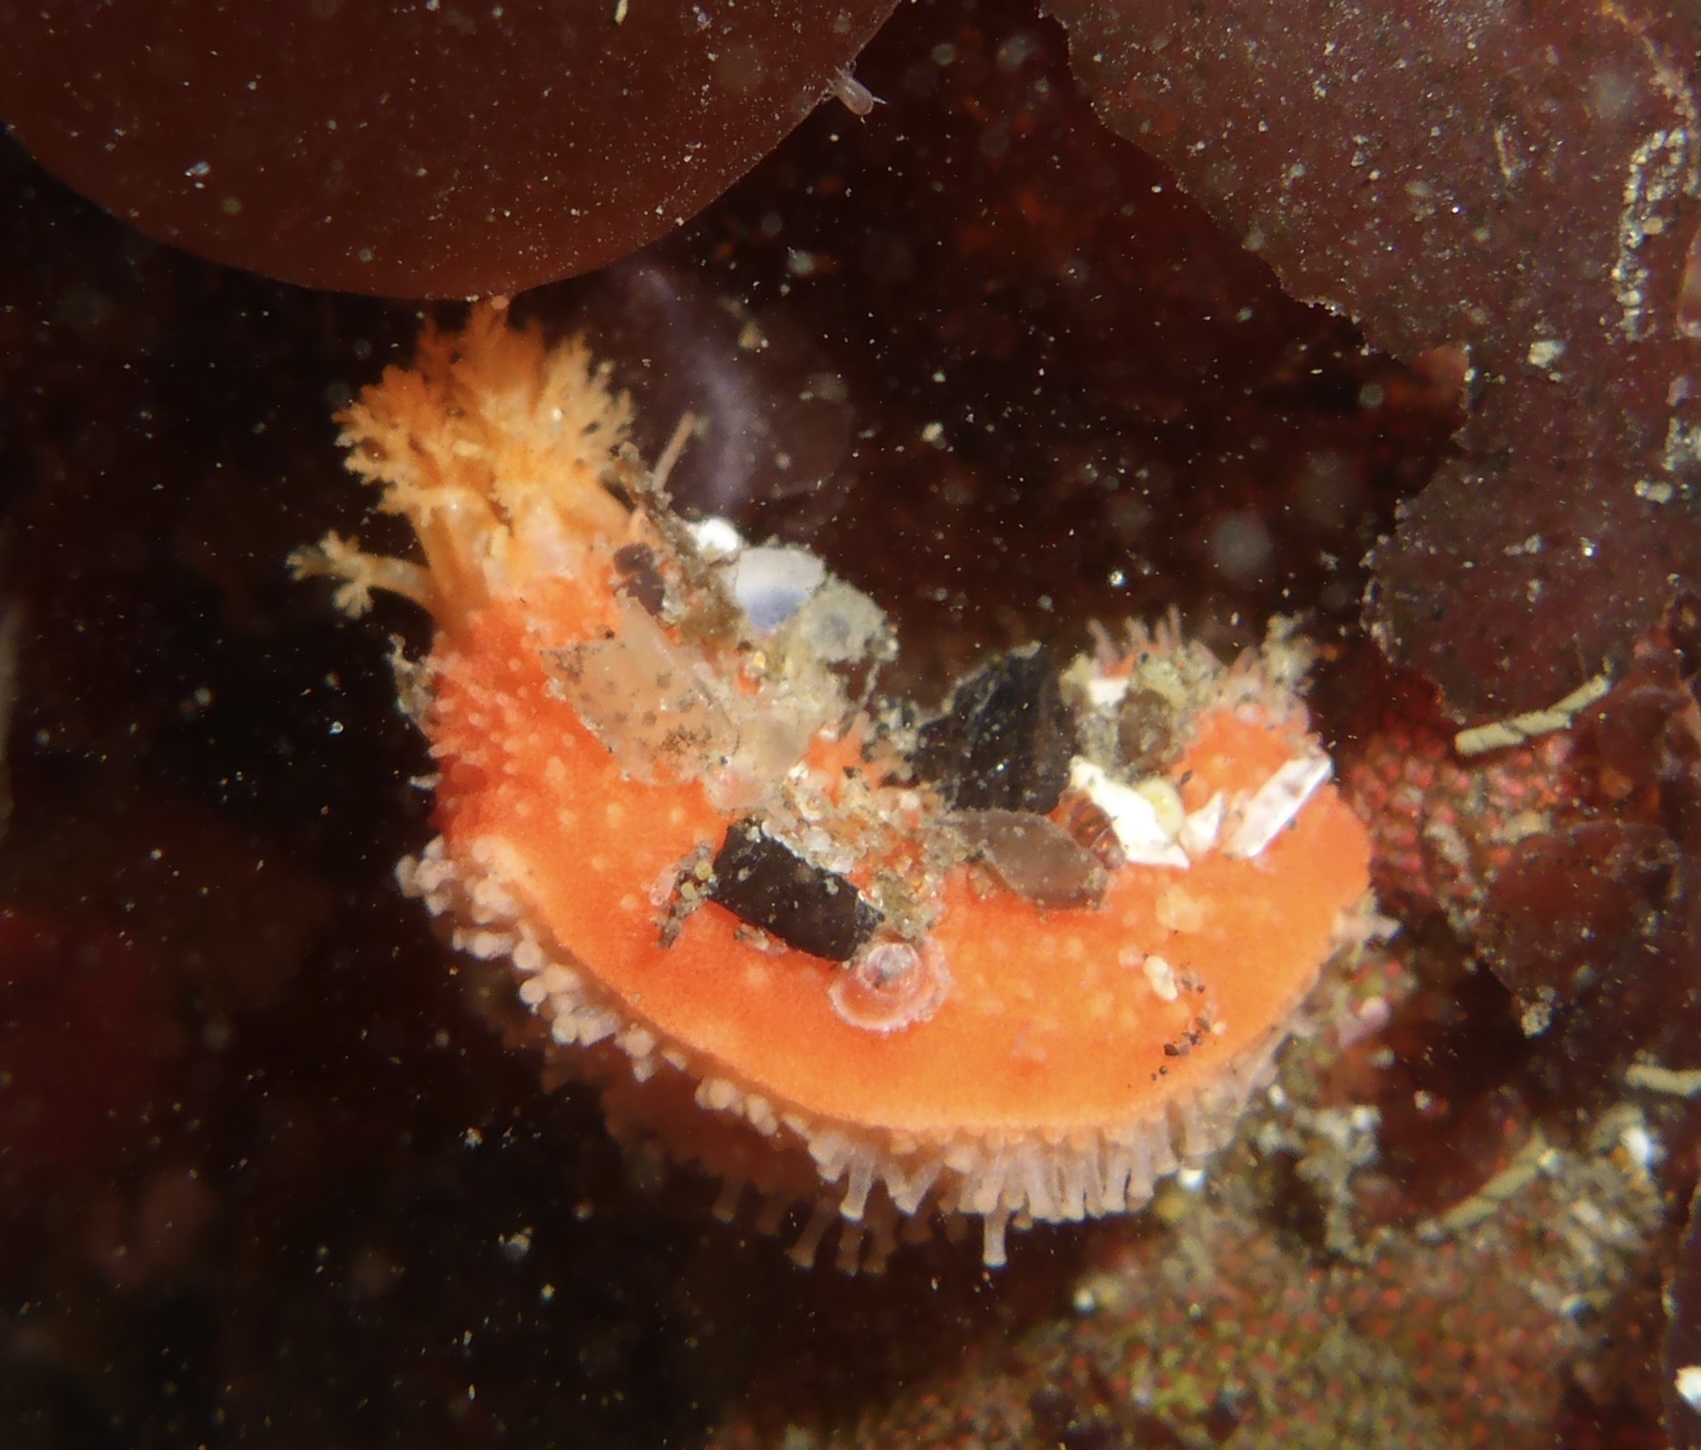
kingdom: Animalia
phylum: Echinodermata
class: Holothuroidea
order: Dendrochirotida
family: Psolidae
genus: Lissothuria
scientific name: Lissothuria nutriens
